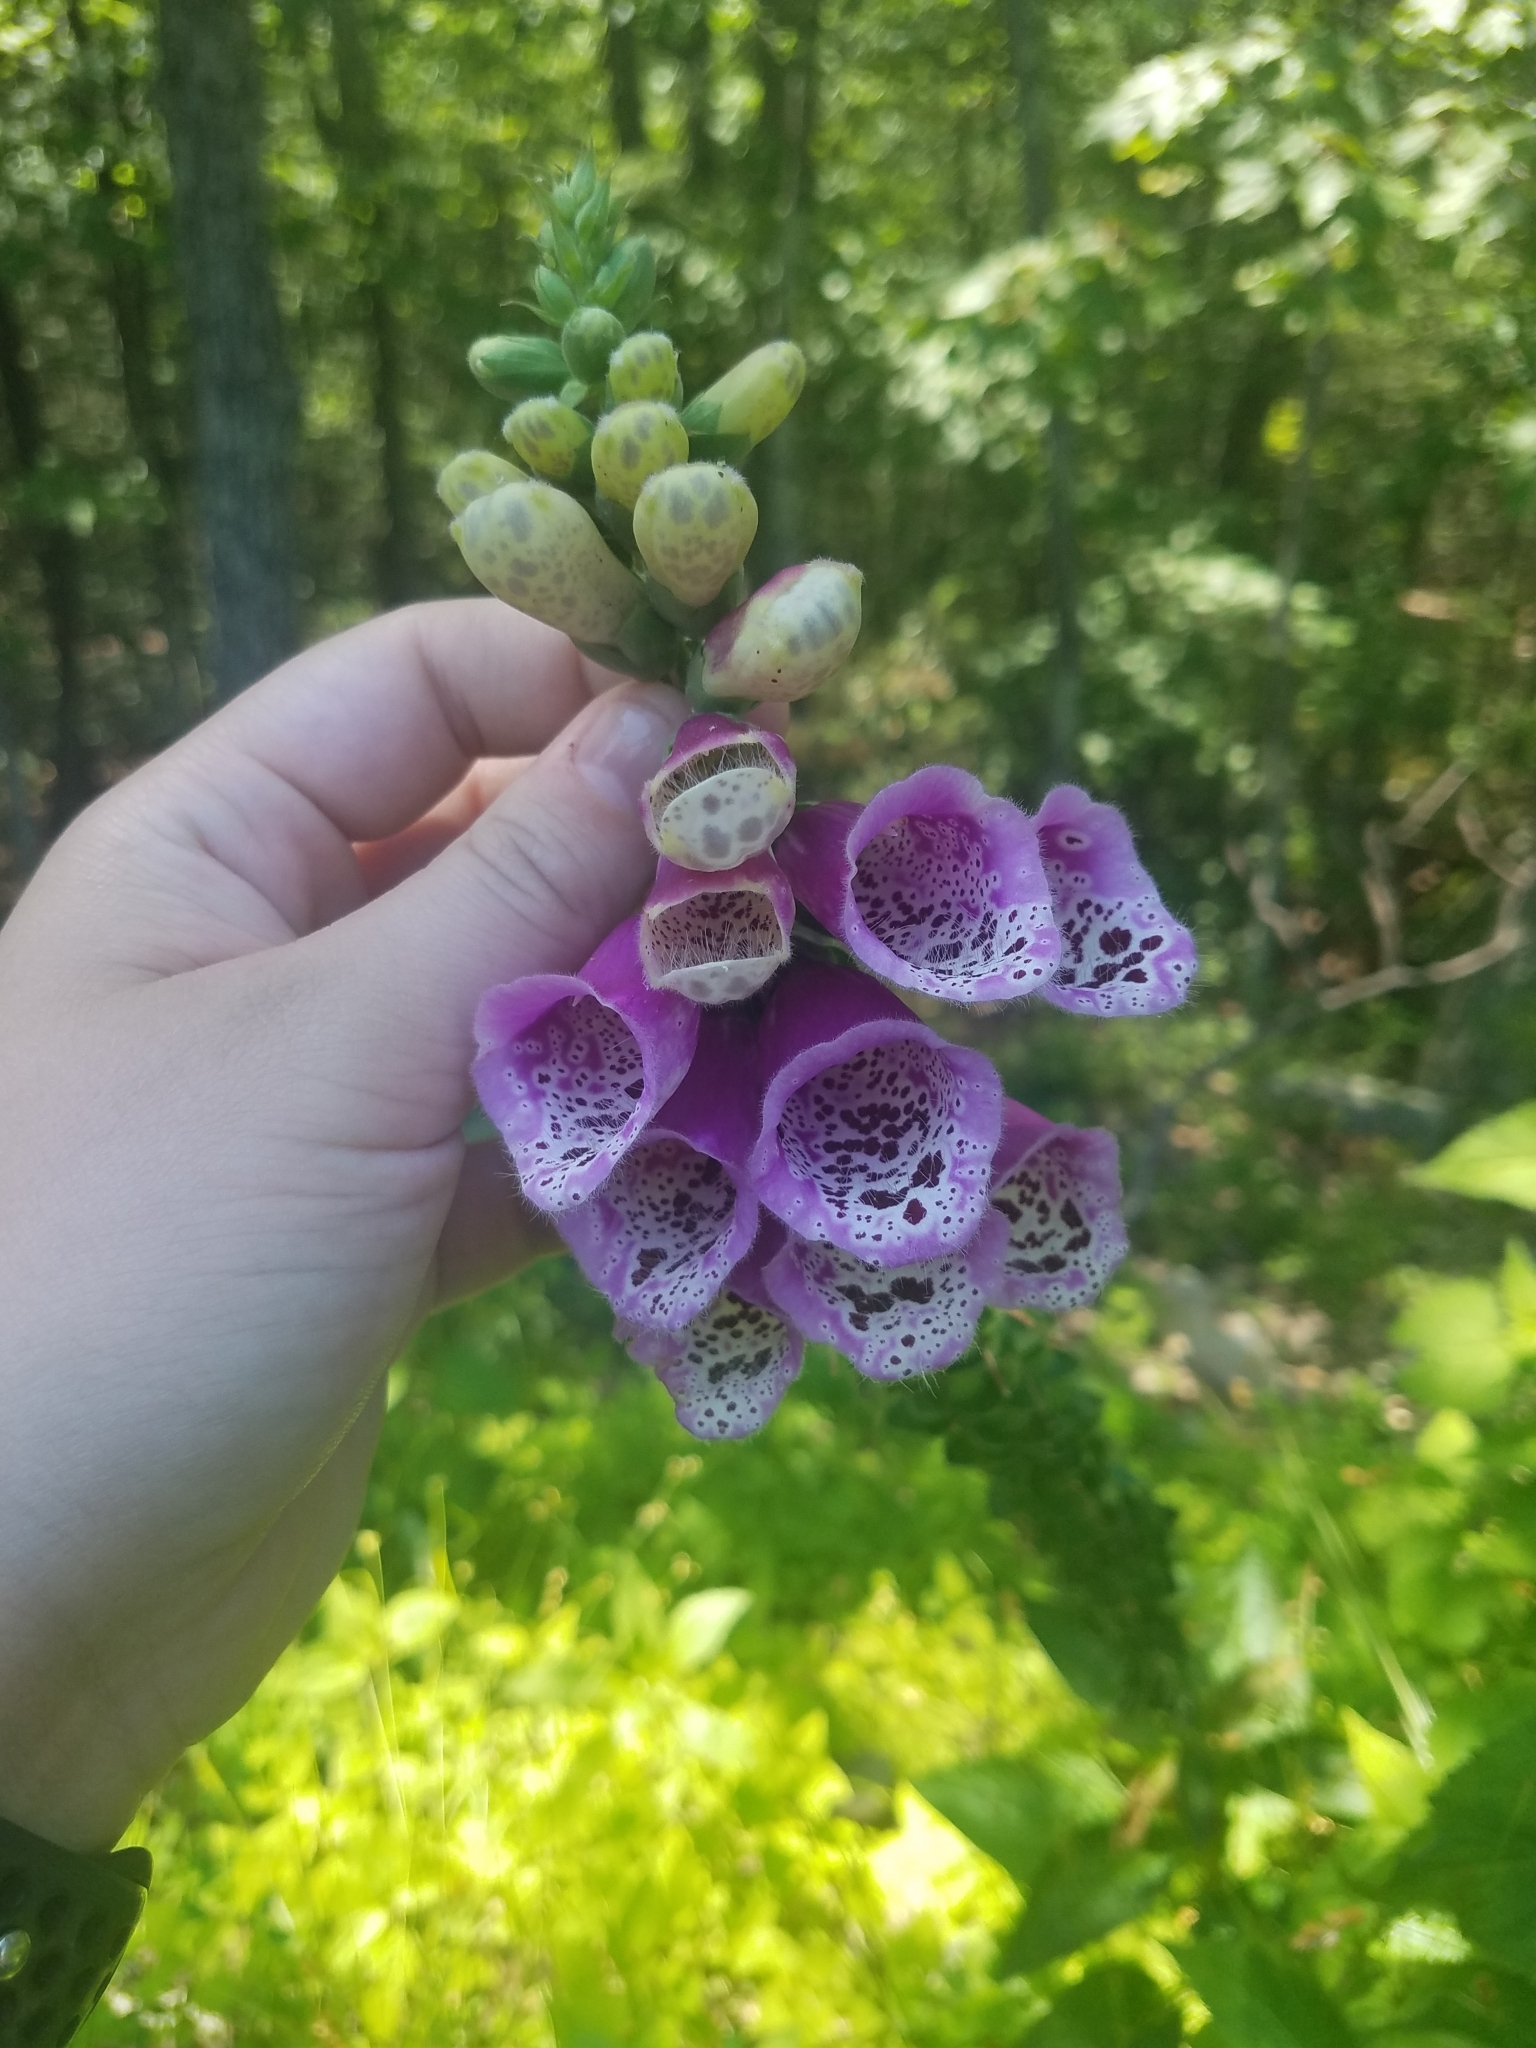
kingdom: Plantae
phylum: Tracheophyta
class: Magnoliopsida
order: Lamiales
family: Plantaginaceae
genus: Digitalis
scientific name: Digitalis purpurea
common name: Foxglove
